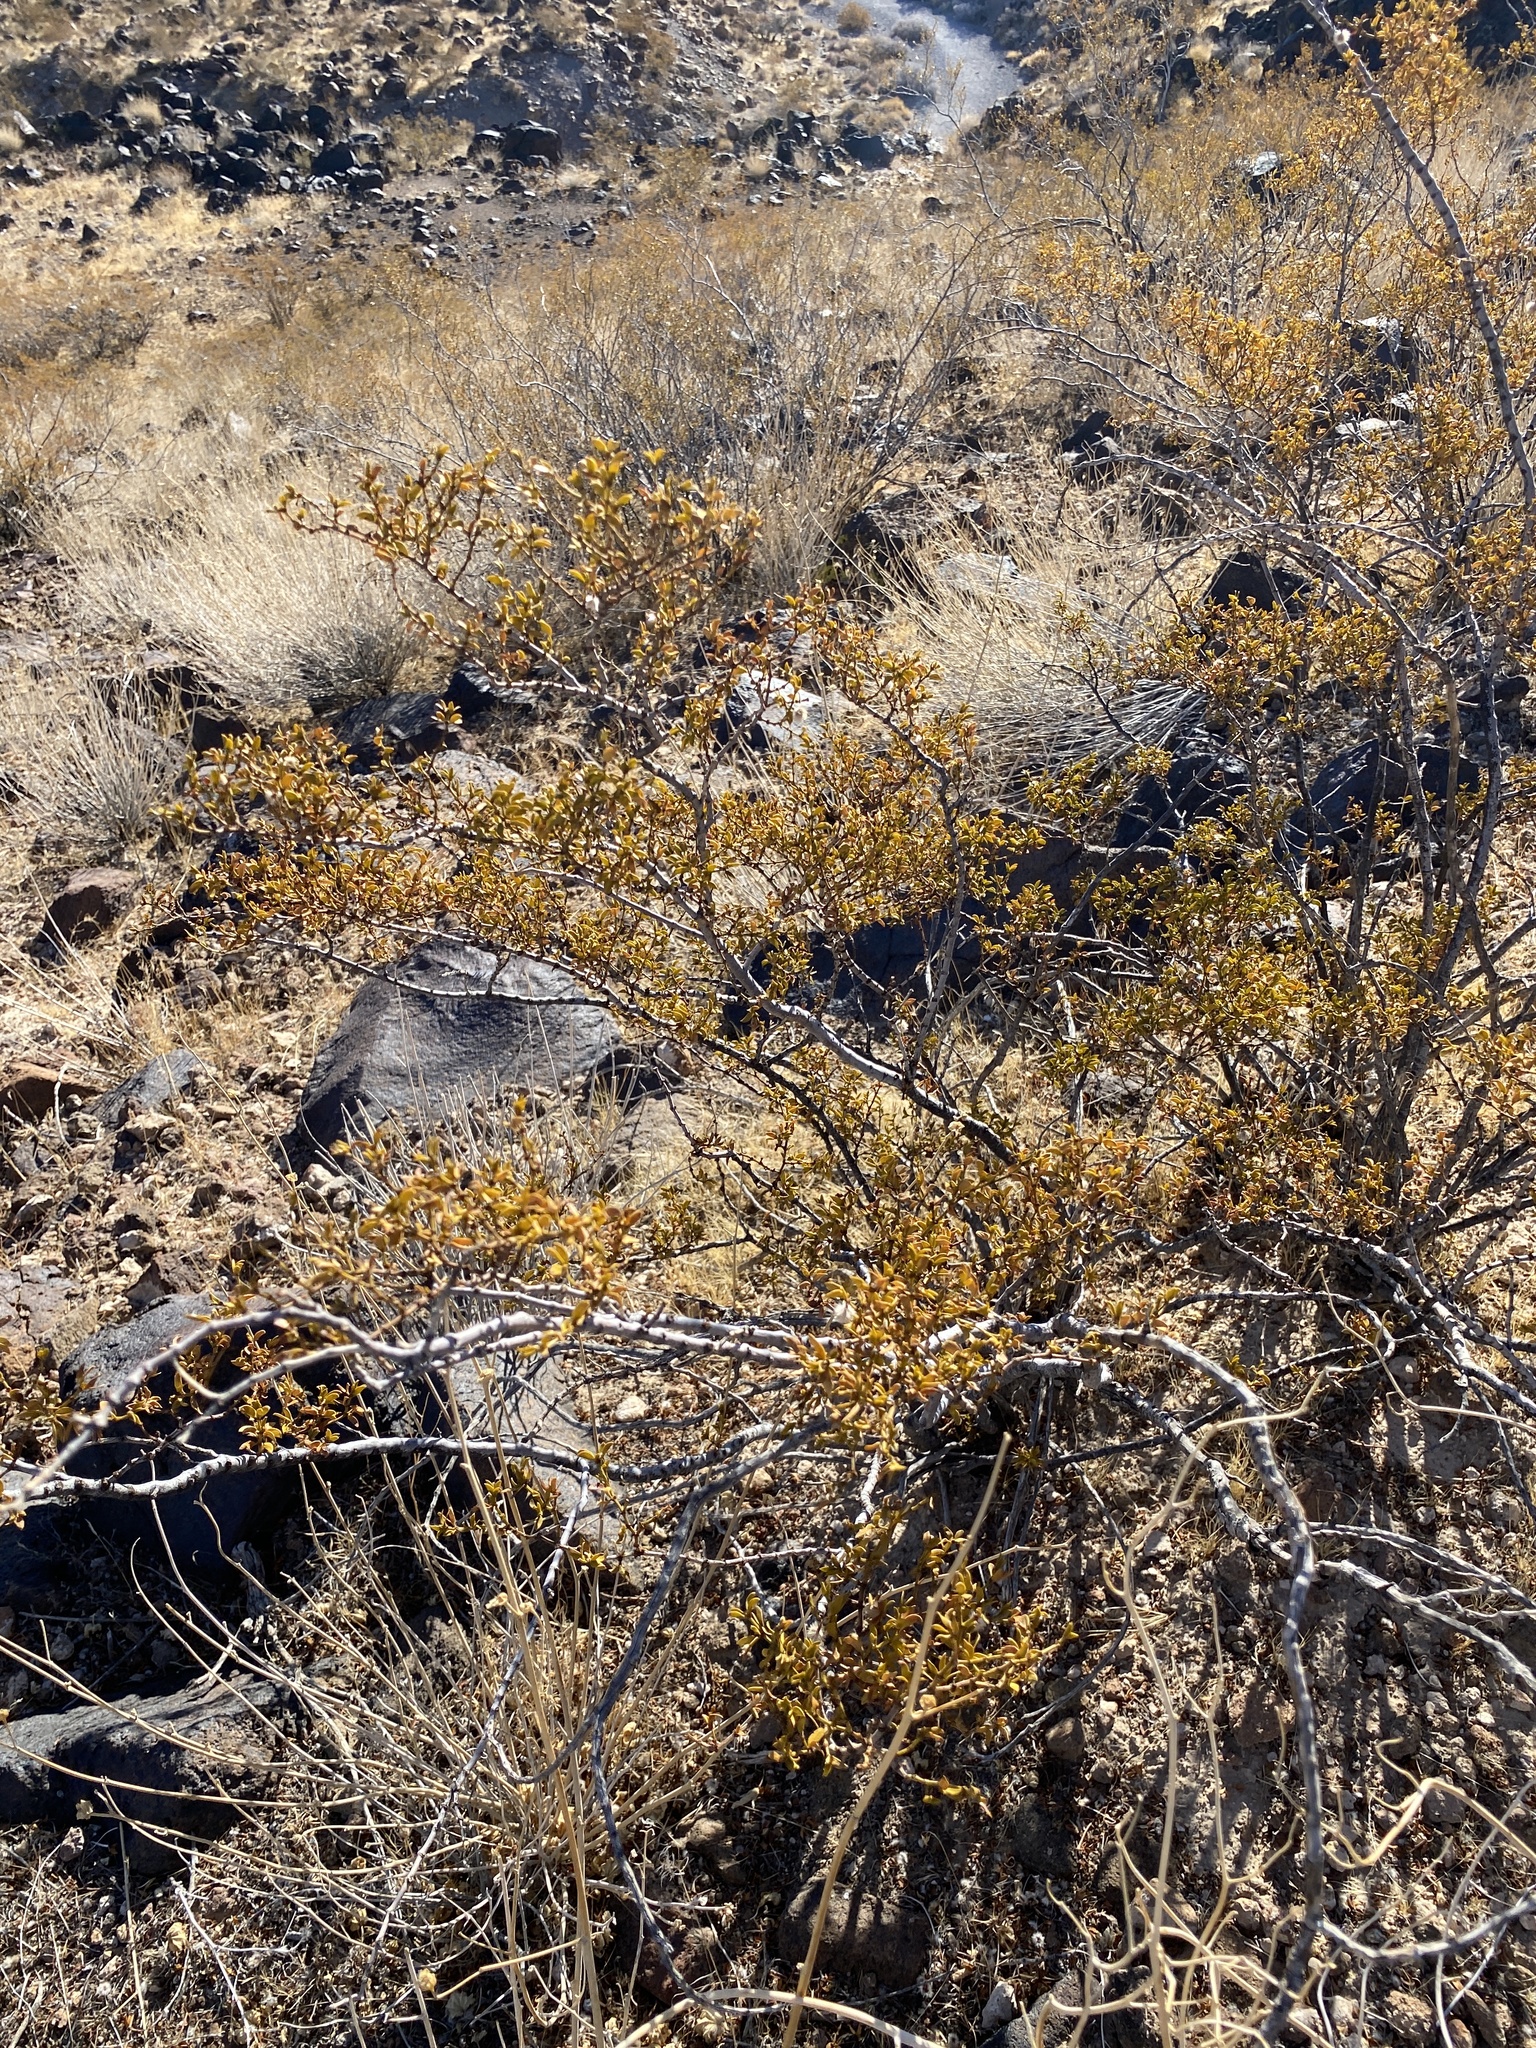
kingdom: Plantae
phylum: Tracheophyta
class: Magnoliopsida
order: Zygophyllales
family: Zygophyllaceae
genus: Larrea
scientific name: Larrea tridentata
